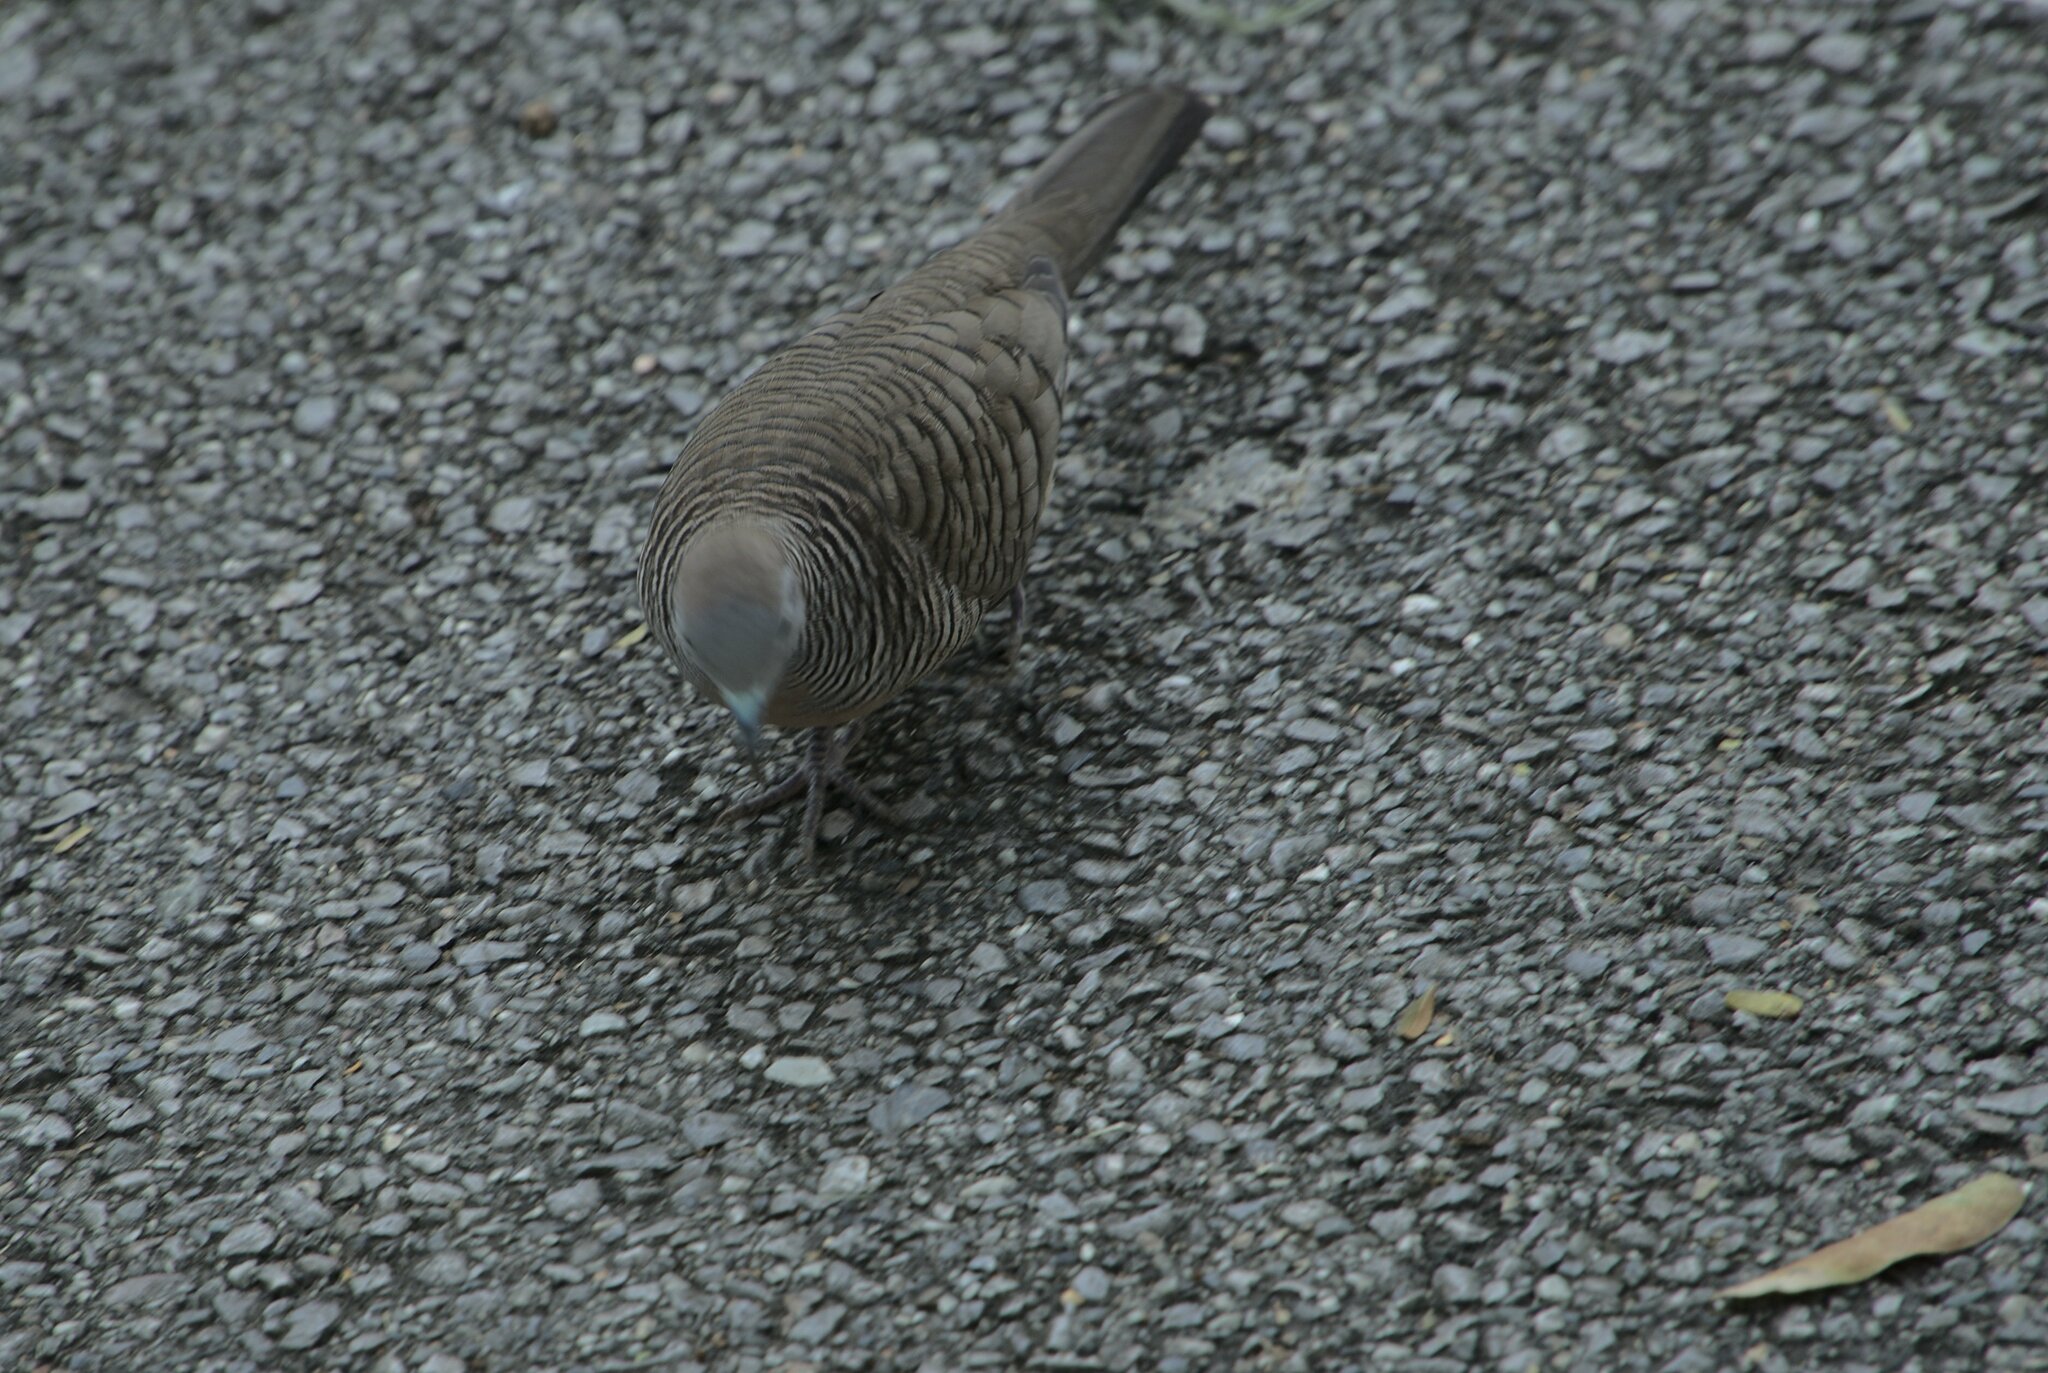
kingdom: Animalia
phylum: Chordata
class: Aves
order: Columbiformes
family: Columbidae
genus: Geopelia
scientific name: Geopelia striata
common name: Zebra dove
